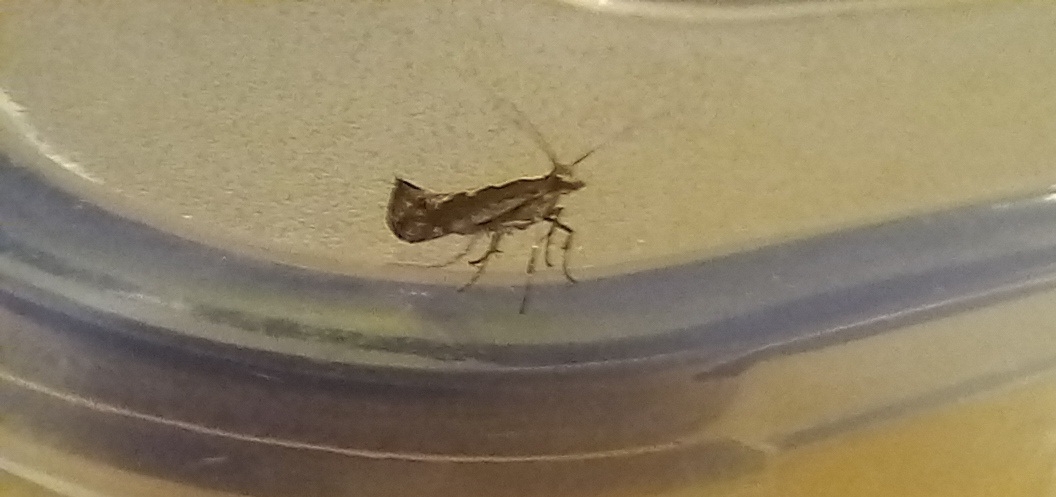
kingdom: Animalia
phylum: Arthropoda
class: Insecta
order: Lepidoptera
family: Plutellidae
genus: Plutella
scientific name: Plutella xylostella
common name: Diamond-back moth
